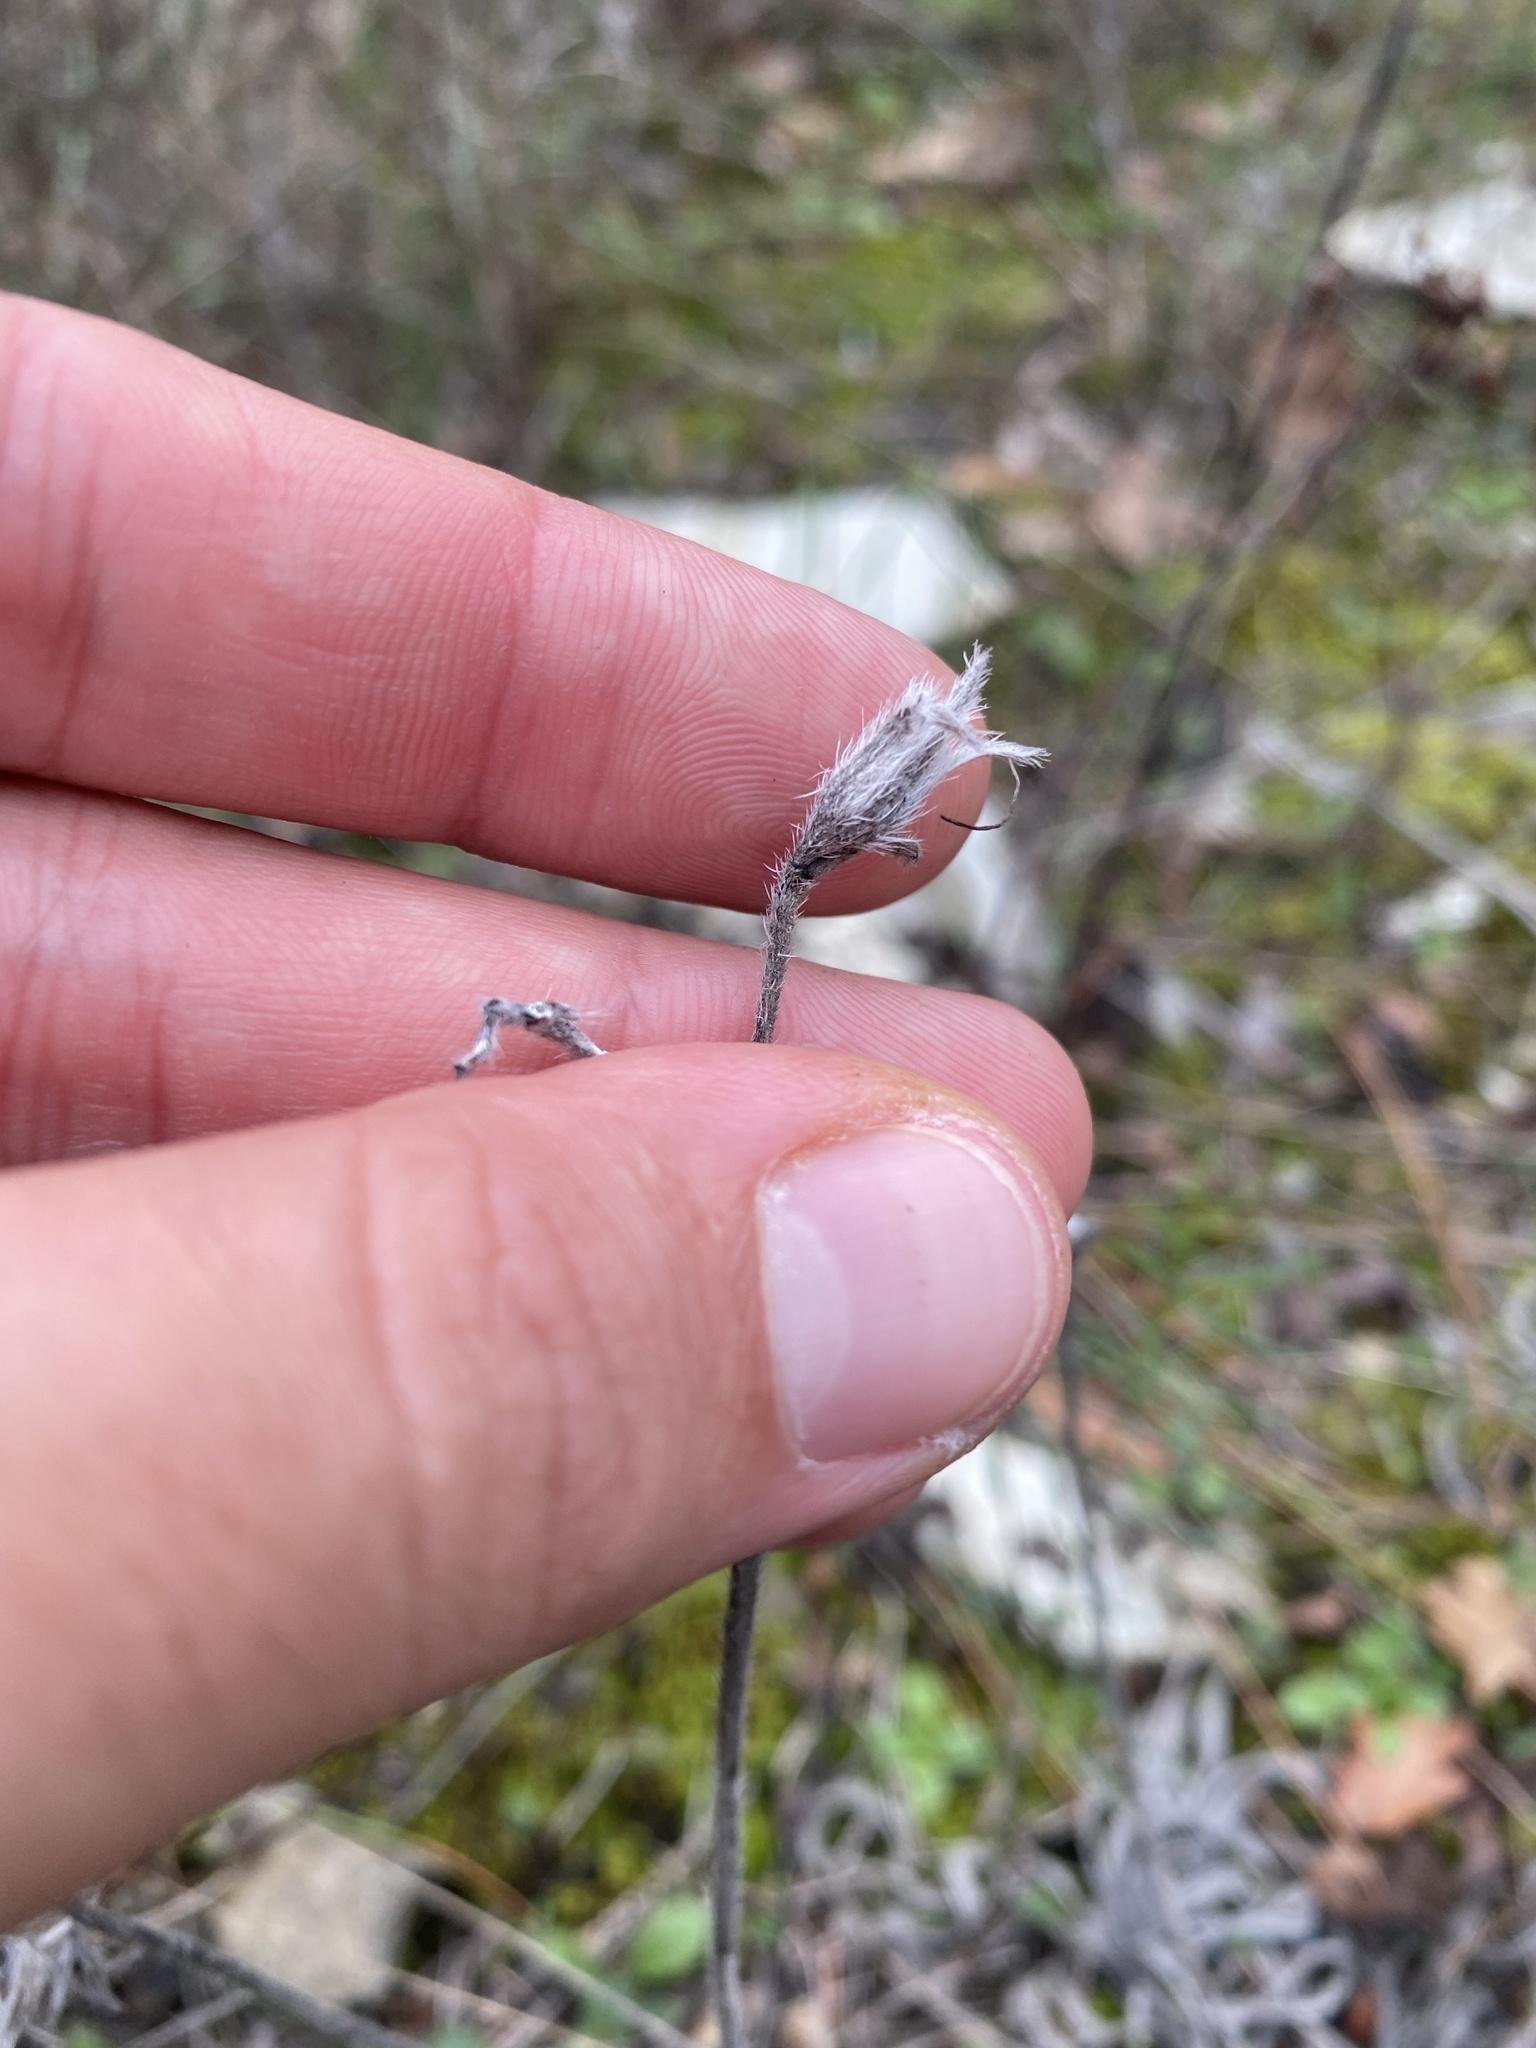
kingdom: Plantae
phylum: Tracheophyta
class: Magnoliopsida
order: Boraginales
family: Boraginaceae
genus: Onosma
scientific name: Onosma polyphylla
